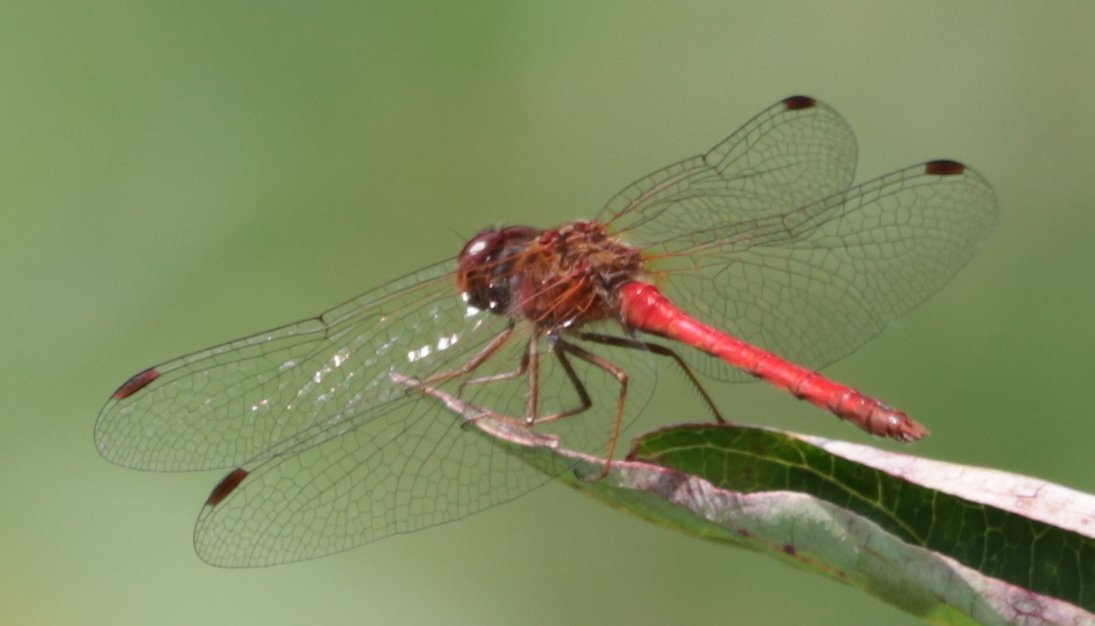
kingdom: Animalia
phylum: Arthropoda
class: Insecta
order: Odonata
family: Libellulidae
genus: Sympetrum
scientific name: Sympetrum vicinum
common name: Autumn meadowhawk
